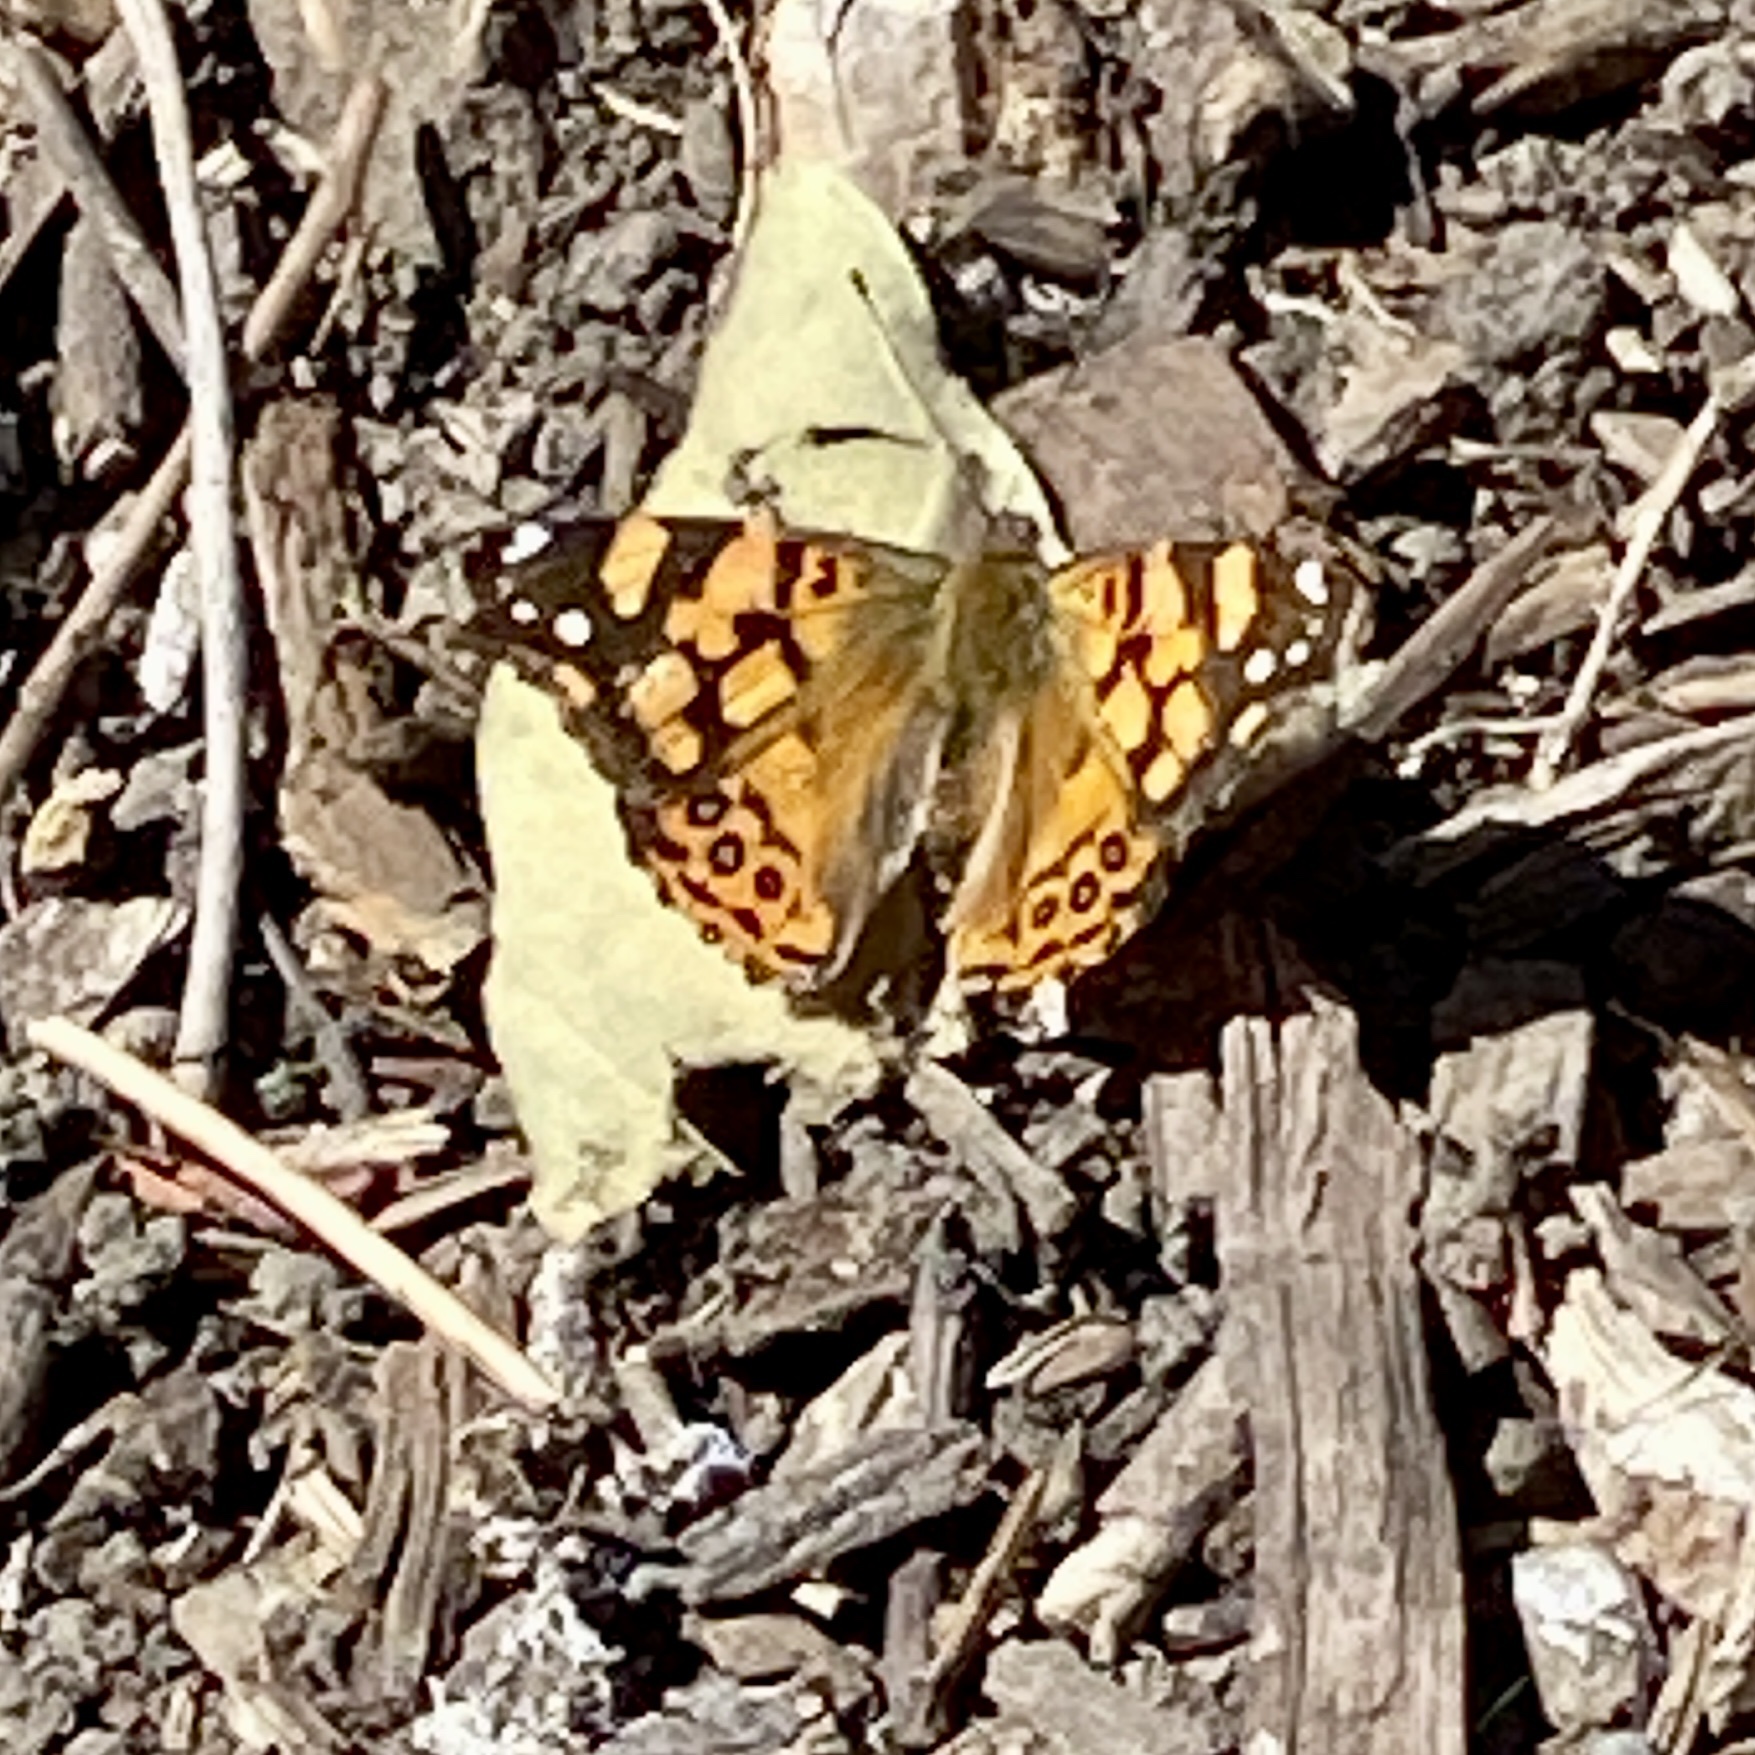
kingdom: Animalia
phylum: Arthropoda
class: Insecta
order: Lepidoptera
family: Nymphalidae
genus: Vanessa
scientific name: Vanessa annabella
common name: West coast lady
